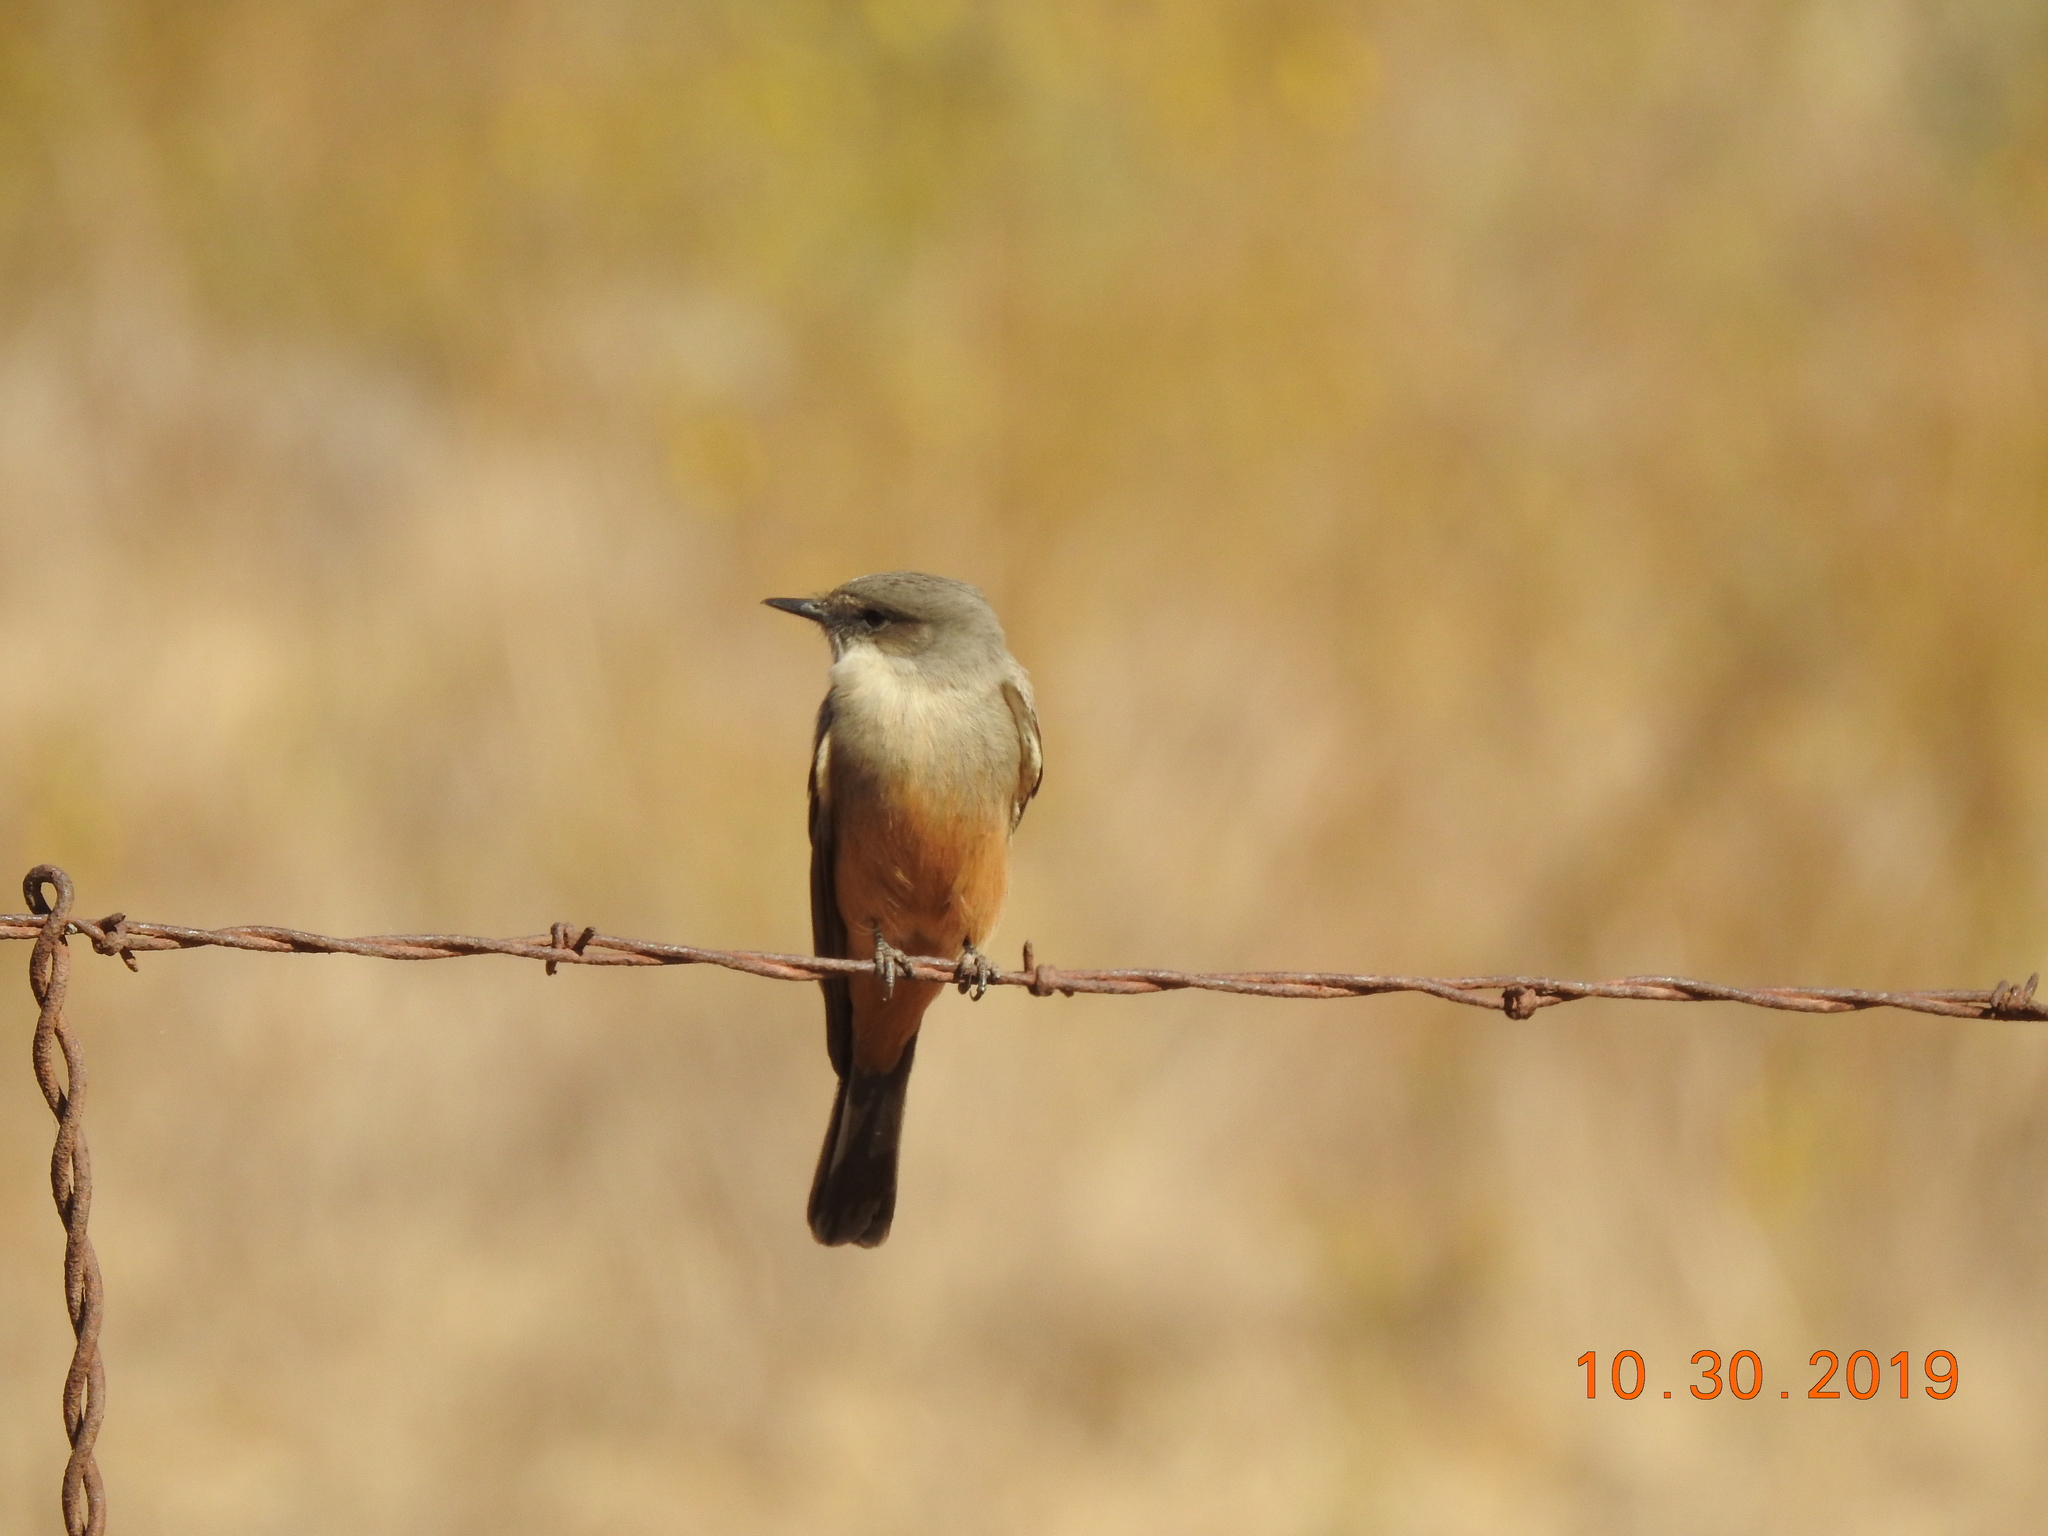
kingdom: Animalia
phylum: Chordata
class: Aves
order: Passeriformes
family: Tyrannidae
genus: Sayornis
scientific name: Sayornis saya
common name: Say's phoebe
